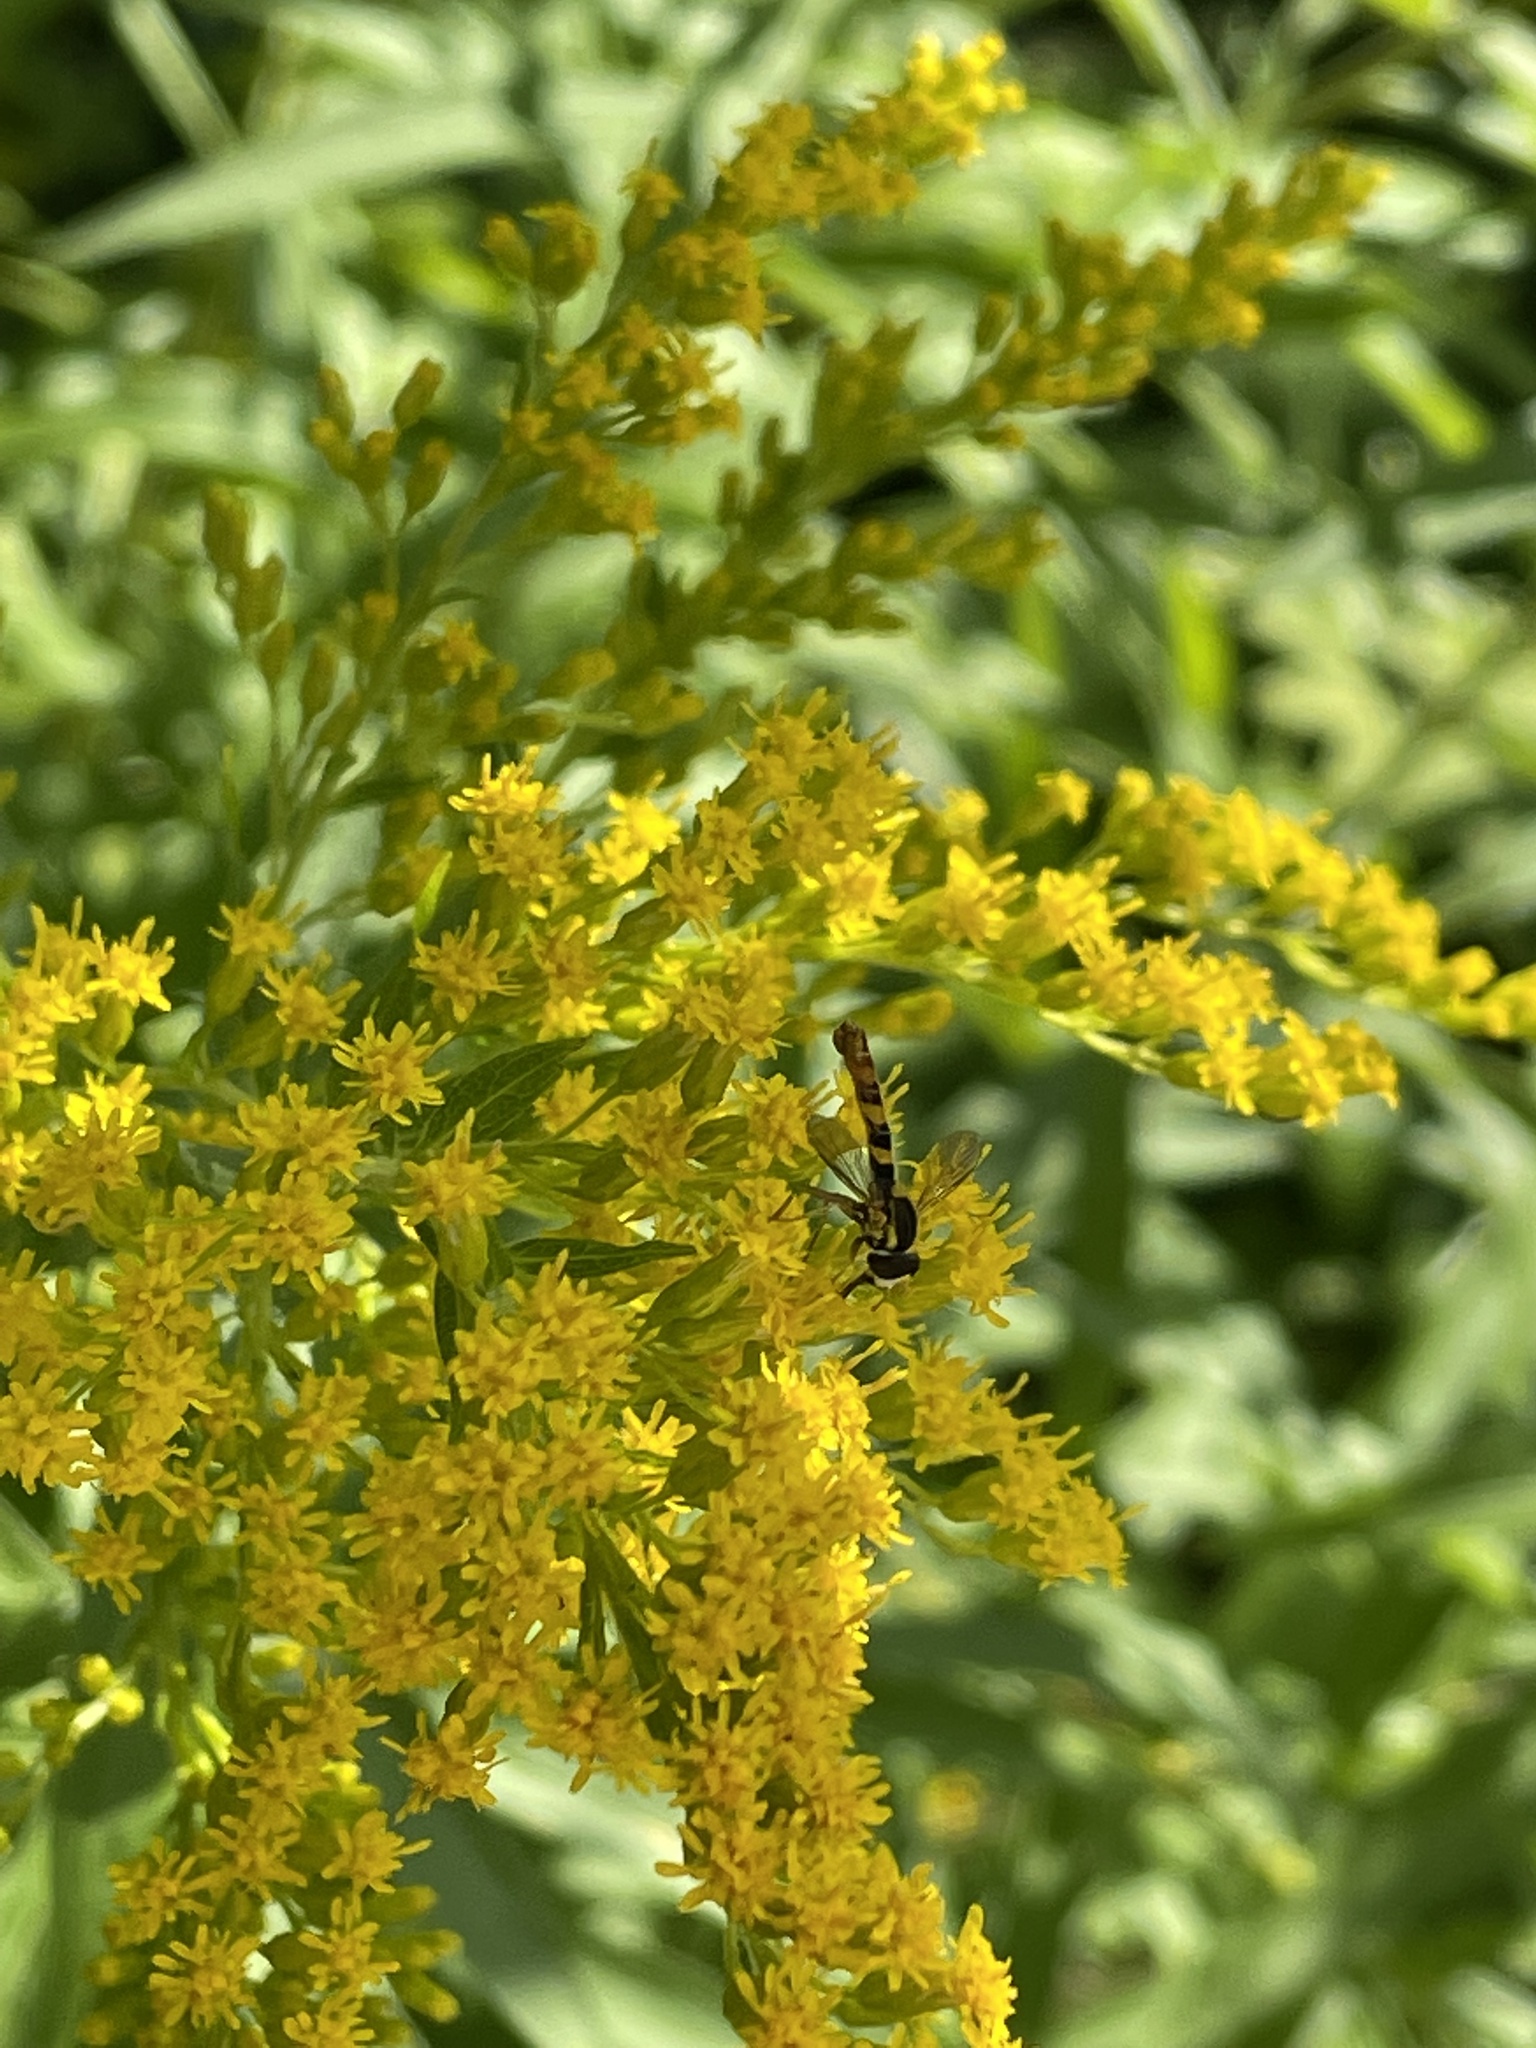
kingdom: Animalia
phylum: Arthropoda
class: Insecta
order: Diptera
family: Syrphidae
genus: Sphaerophoria
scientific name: Sphaerophoria scripta
